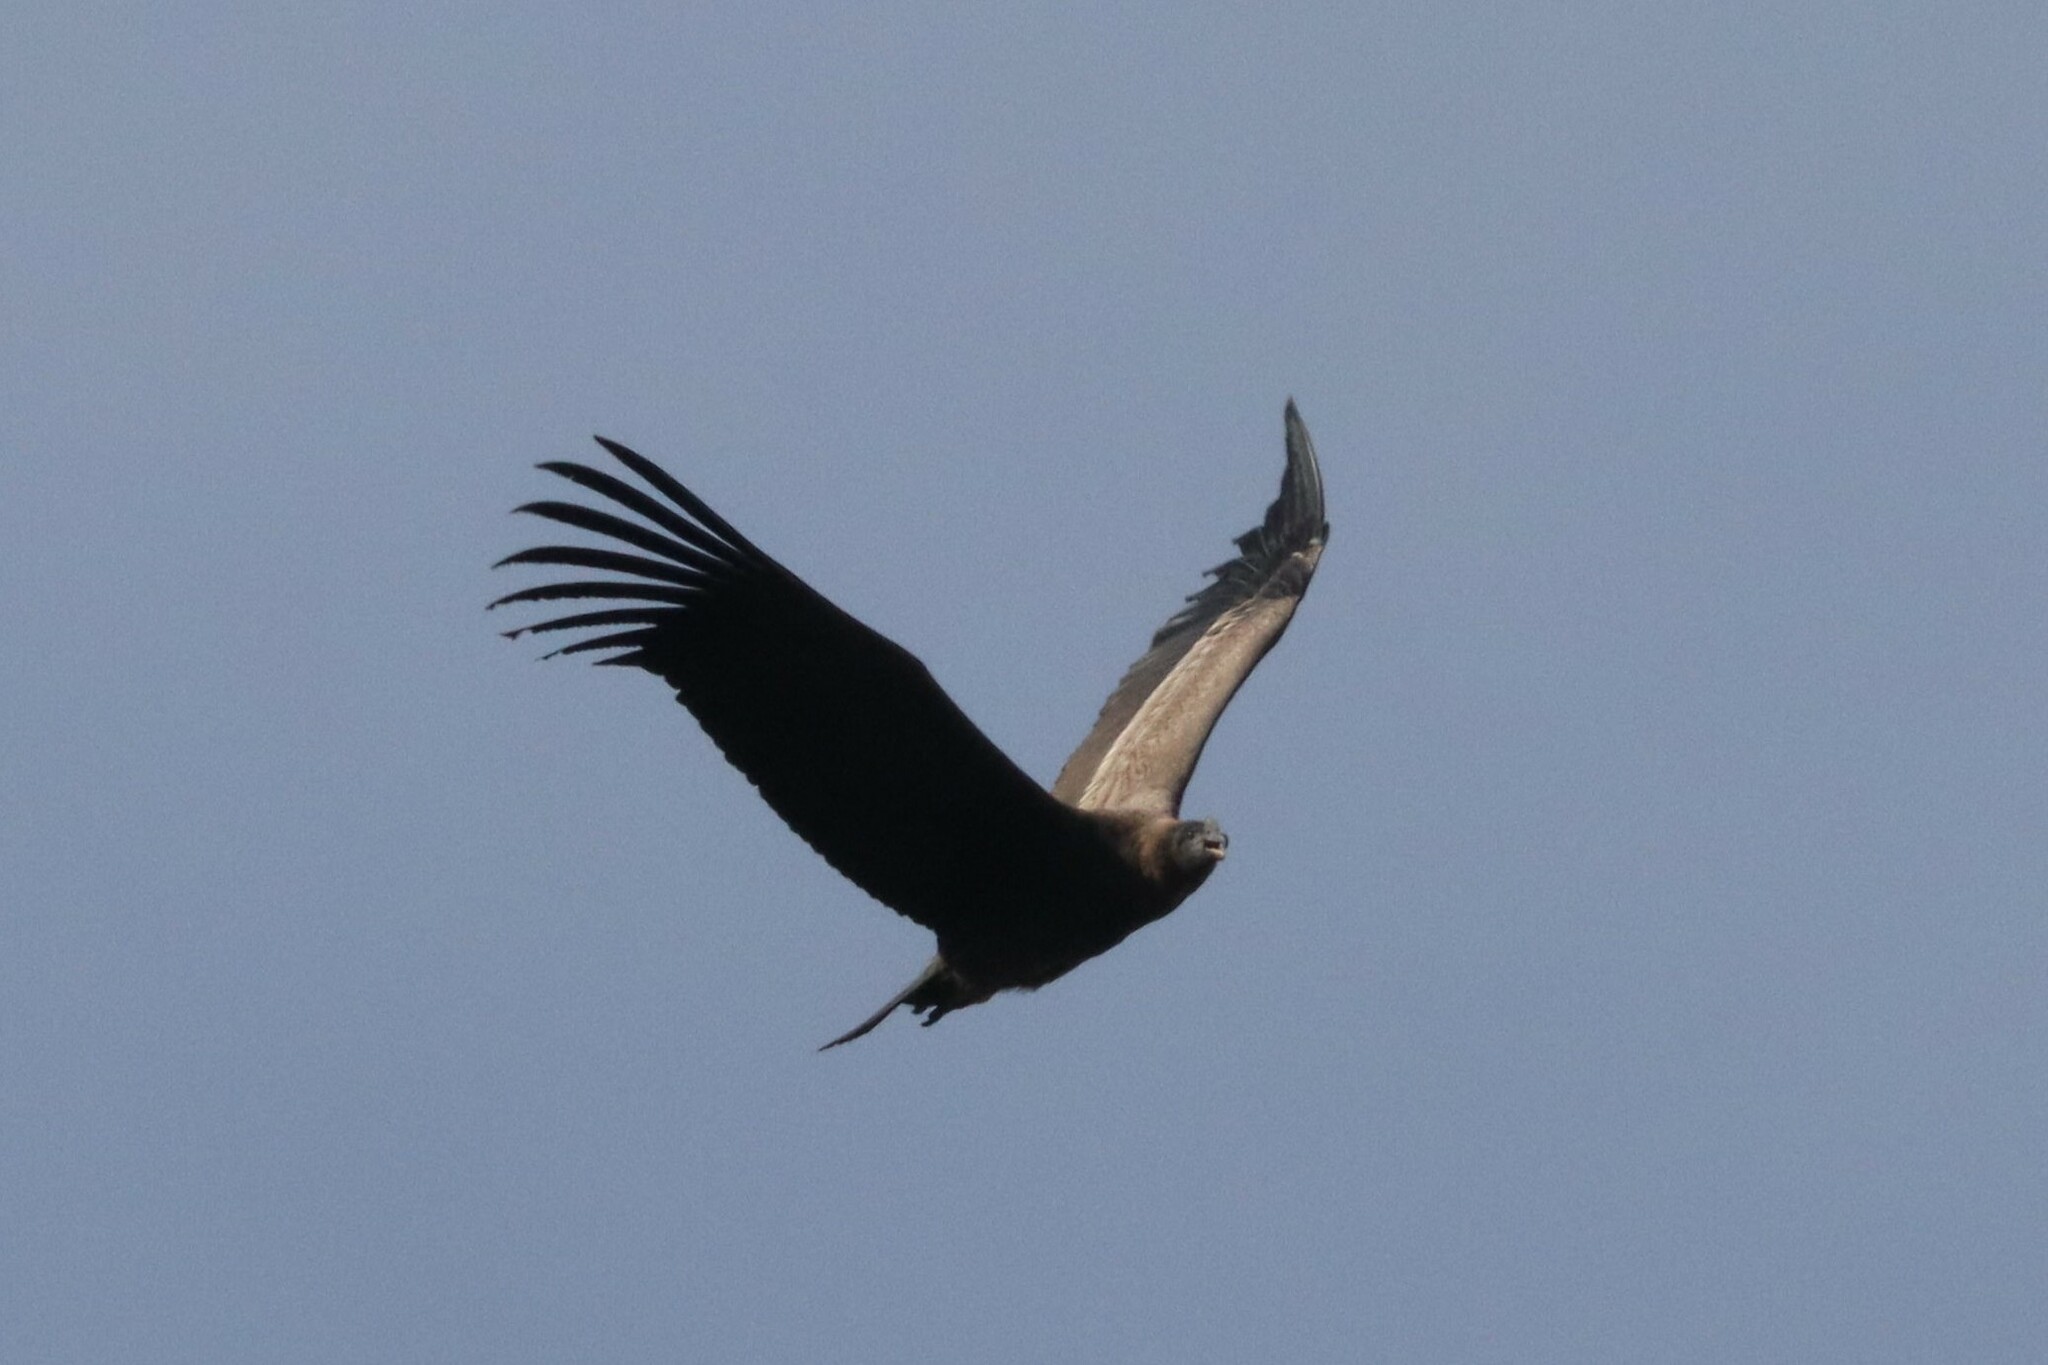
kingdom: Animalia
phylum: Chordata
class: Aves
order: Accipitriformes
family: Cathartidae
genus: Vultur
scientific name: Vultur gryphus
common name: Andean condor
